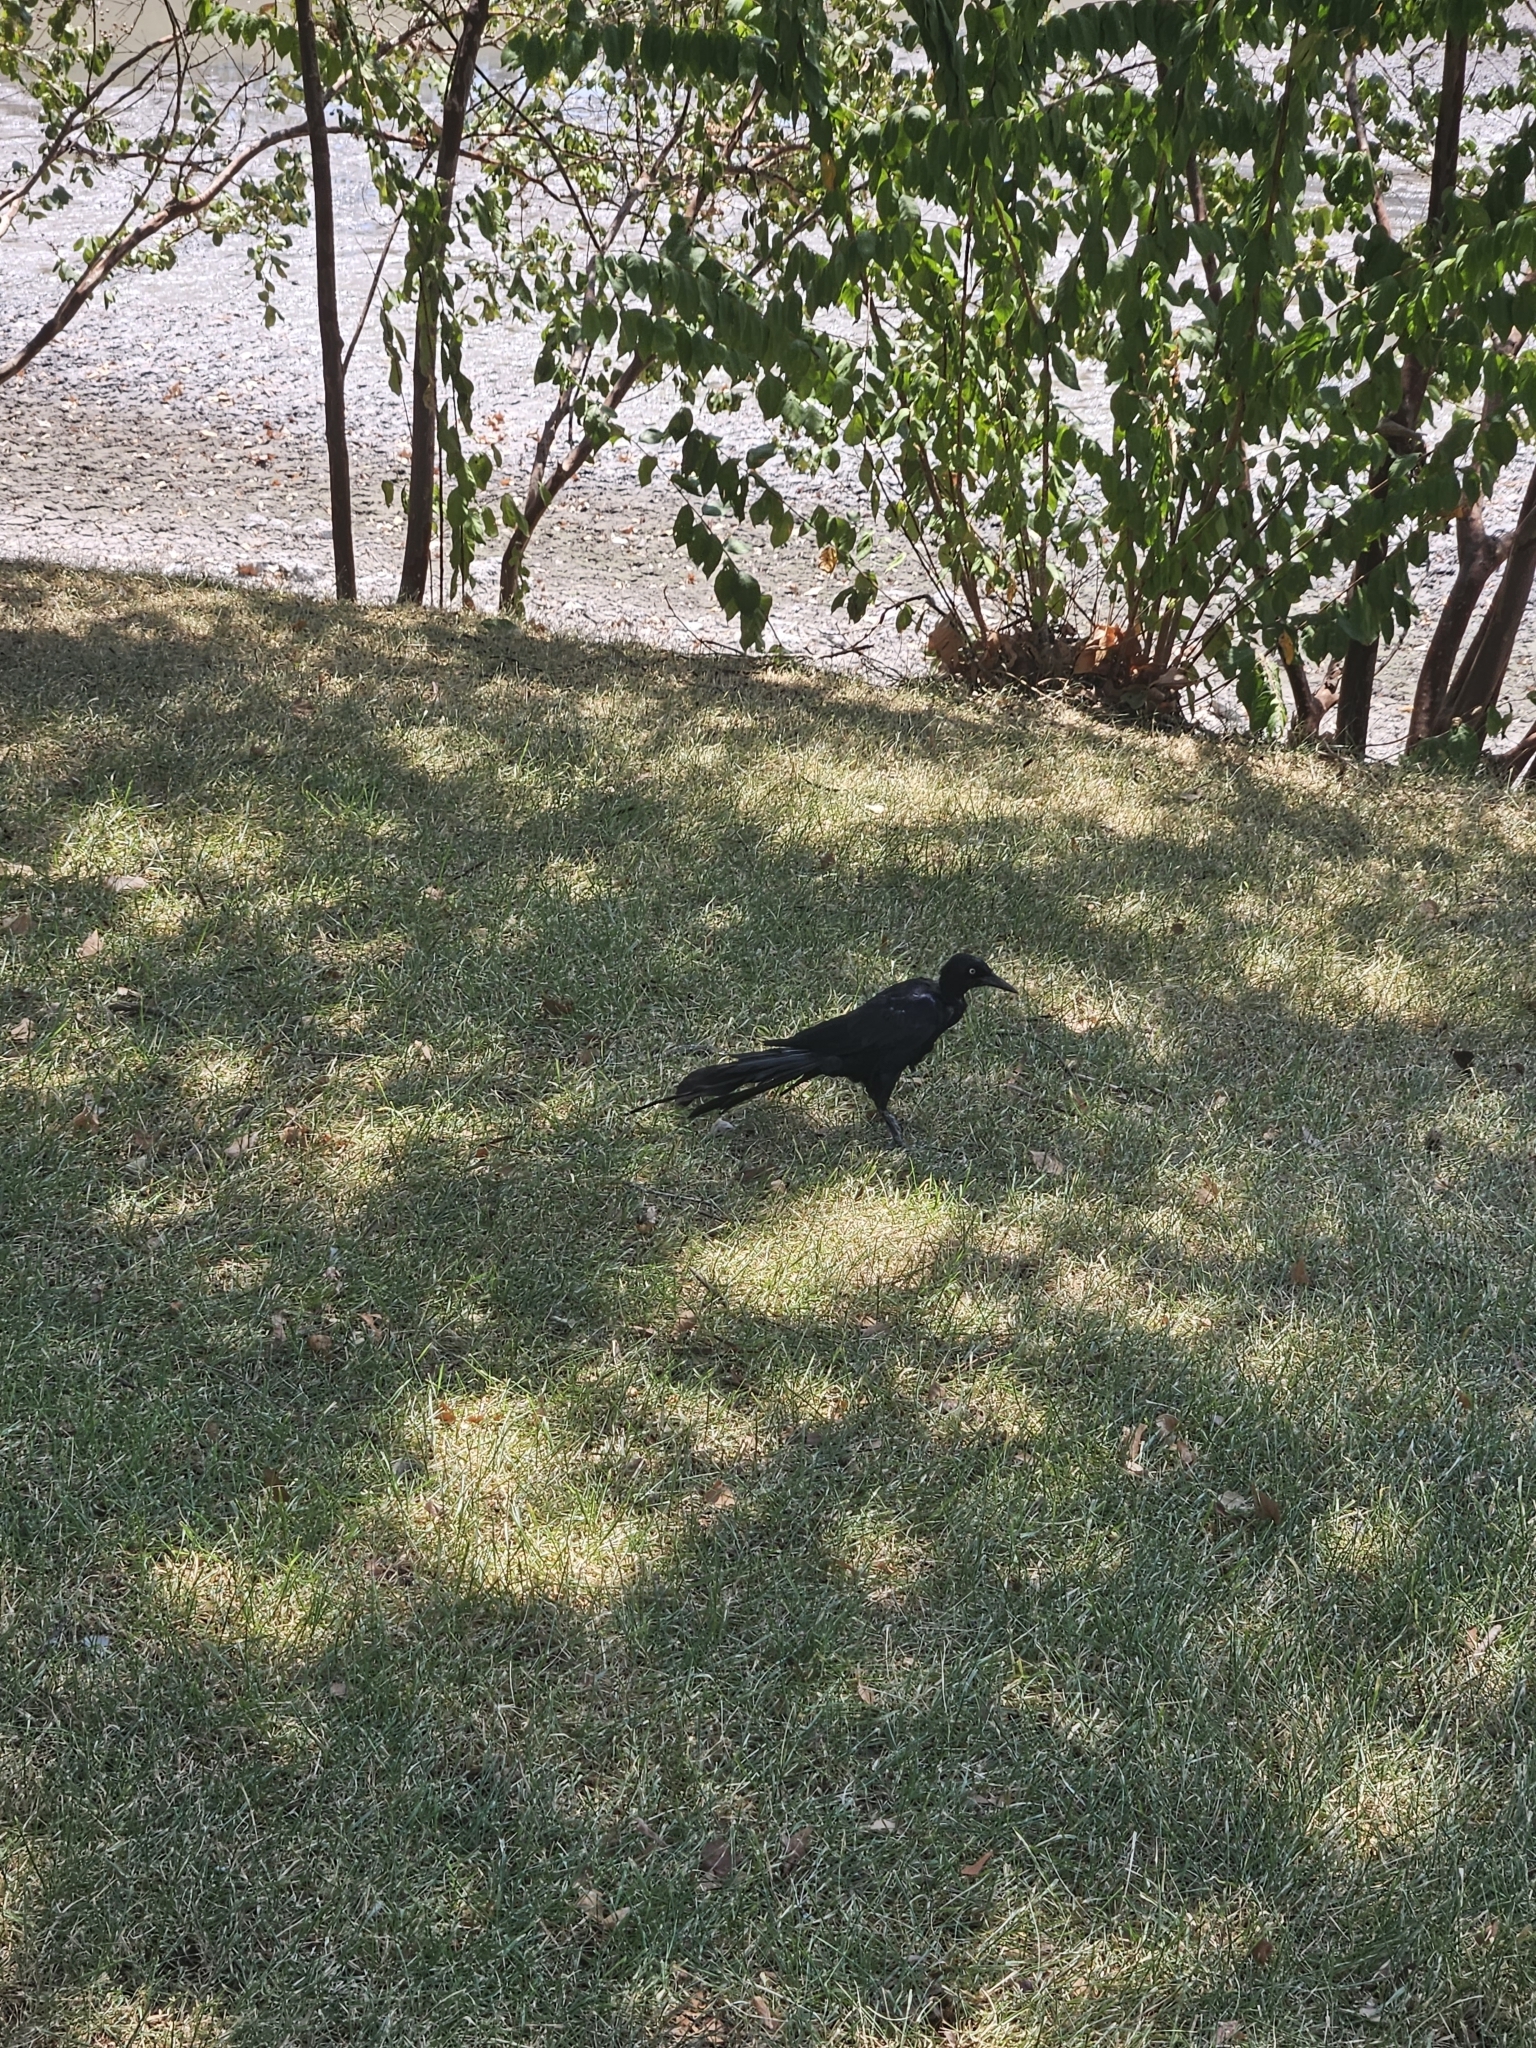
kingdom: Animalia
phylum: Chordata
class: Aves
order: Passeriformes
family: Icteridae
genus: Quiscalus
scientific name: Quiscalus mexicanus
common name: Great-tailed grackle
